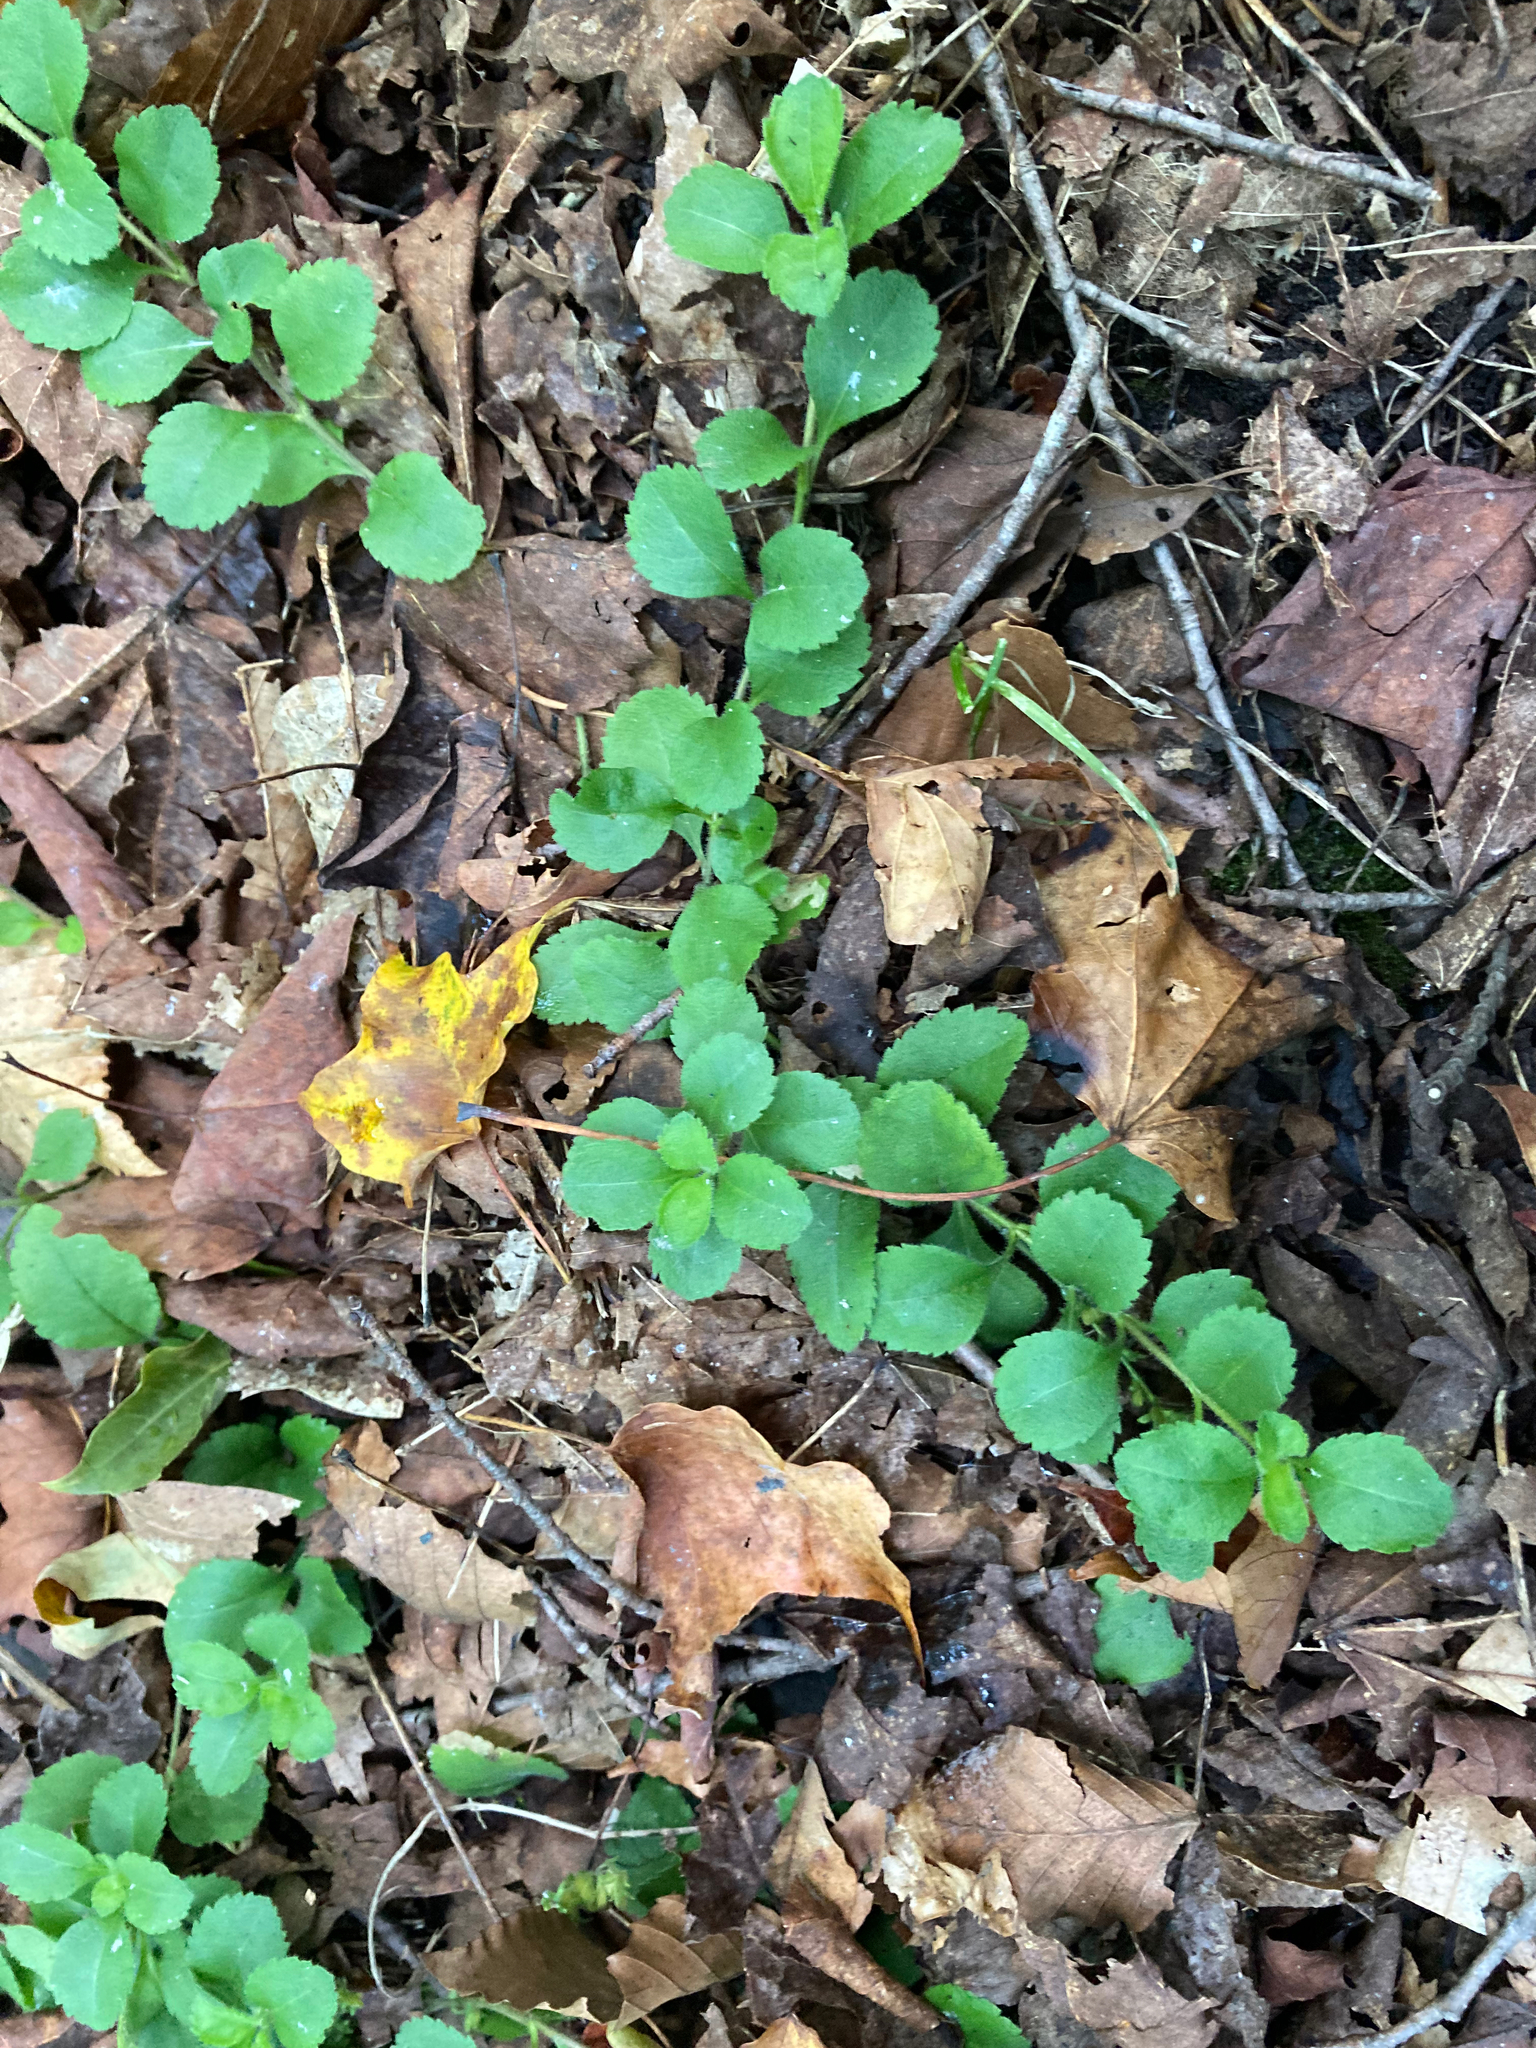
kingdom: Plantae
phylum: Tracheophyta
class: Magnoliopsida
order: Lamiales
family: Plantaginaceae
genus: Veronica
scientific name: Veronica officinalis
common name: Common speedwell
